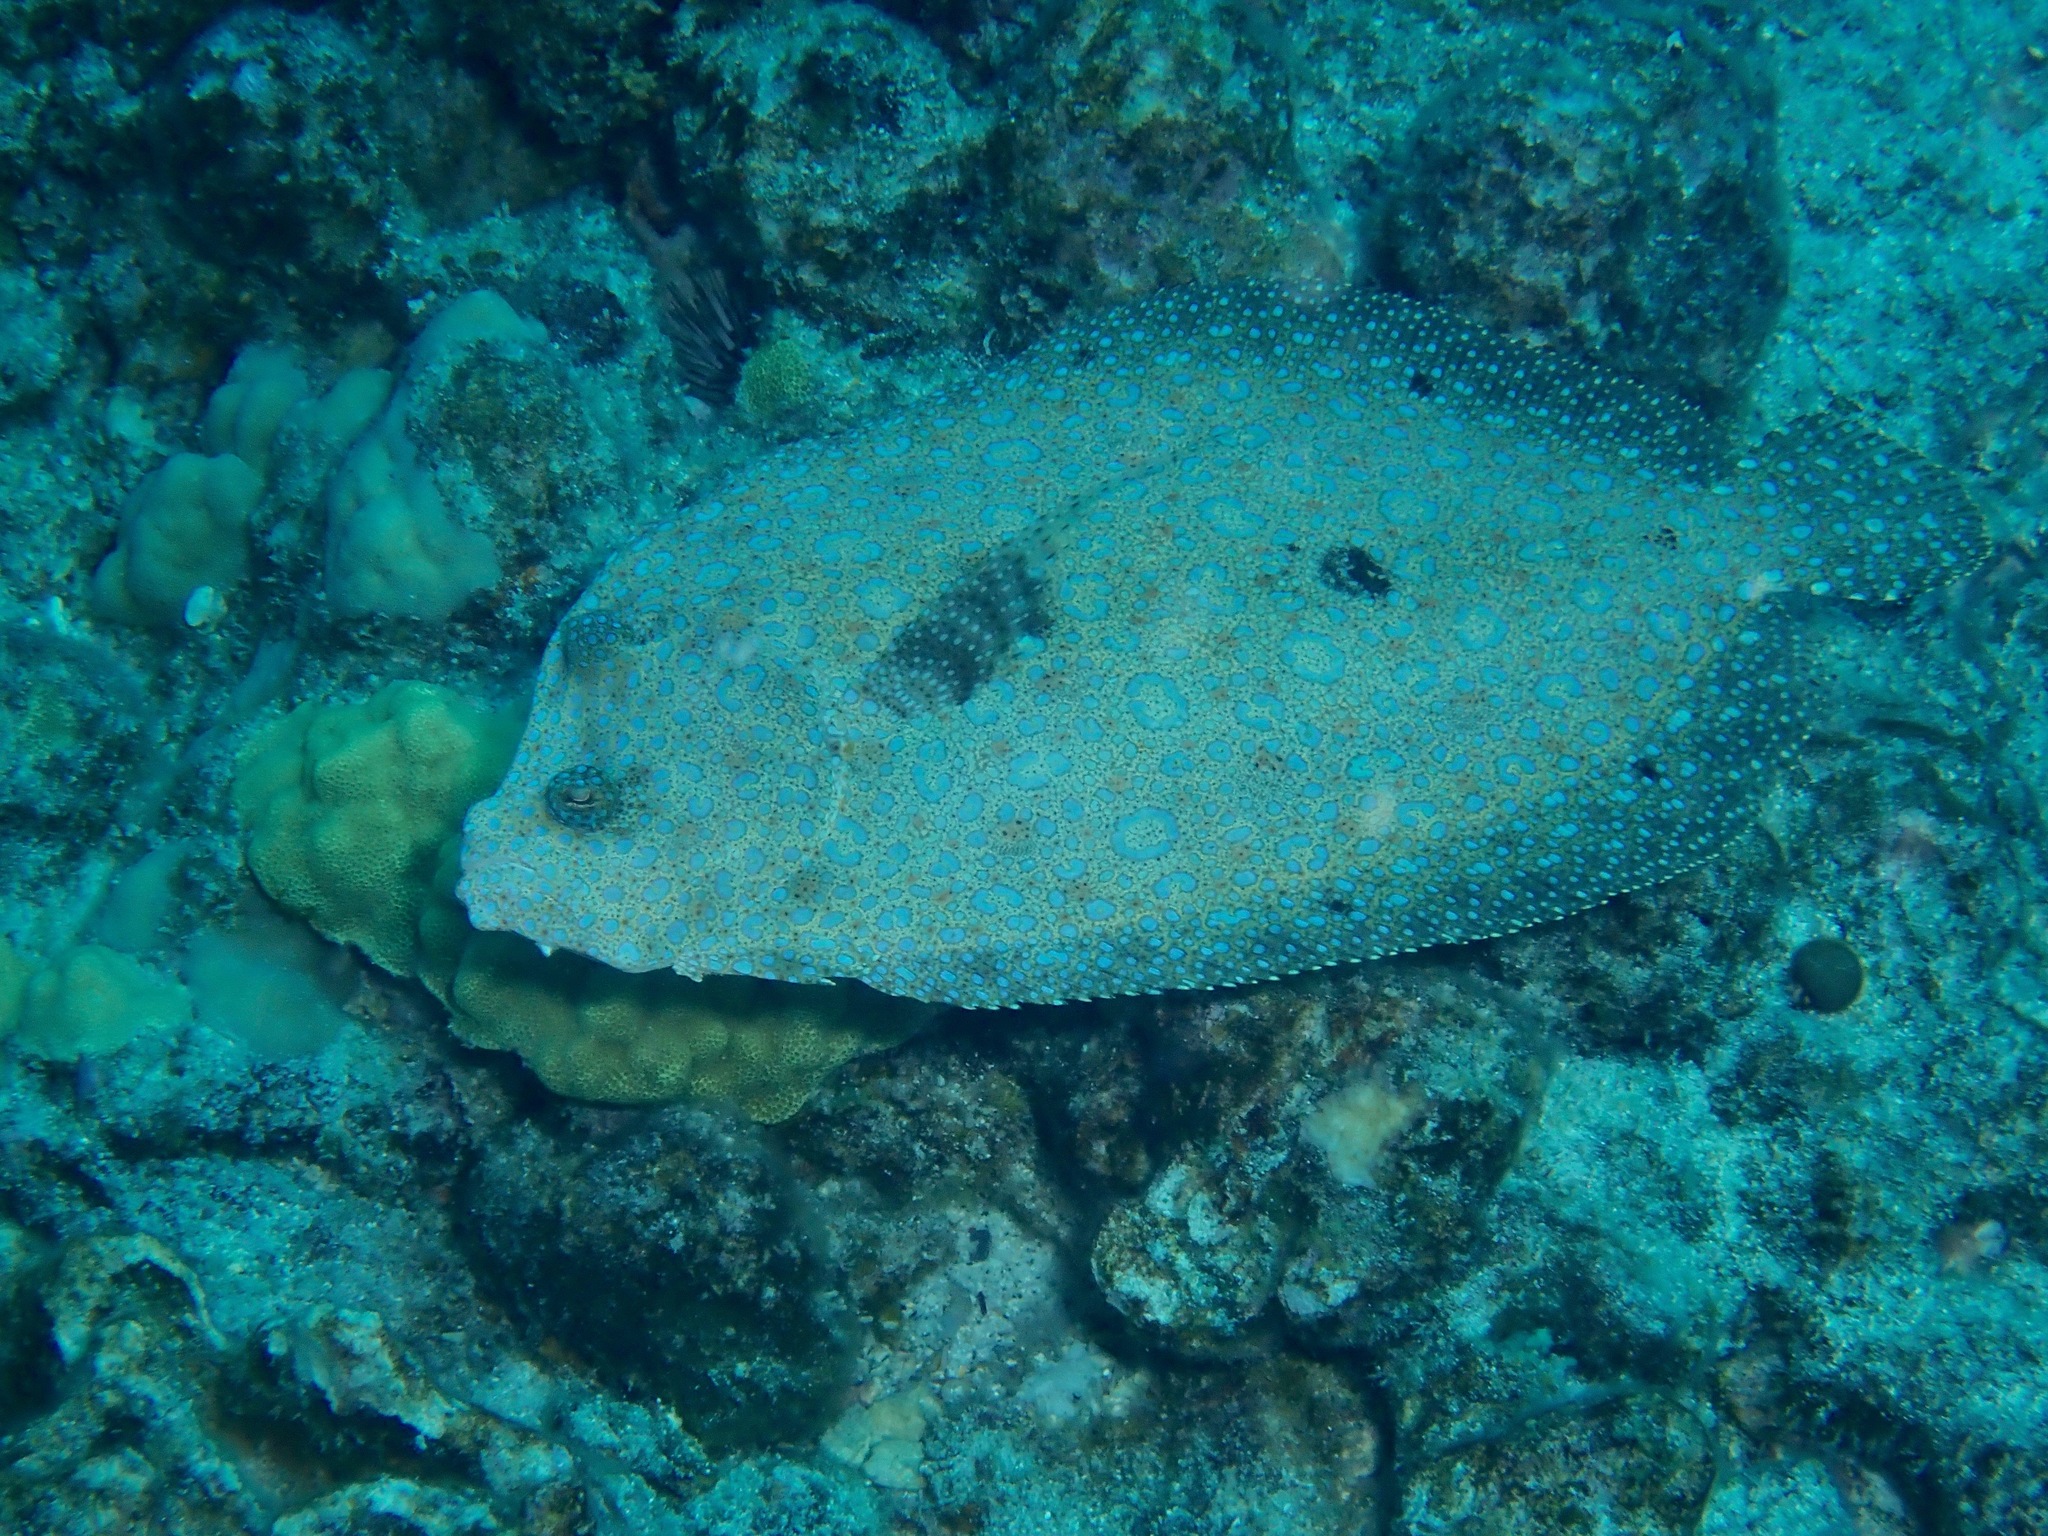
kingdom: Animalia
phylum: Chordata
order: Pleuronectiformes
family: Bothidae
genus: Bothus
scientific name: Bothus mancus
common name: Flowery flounder
